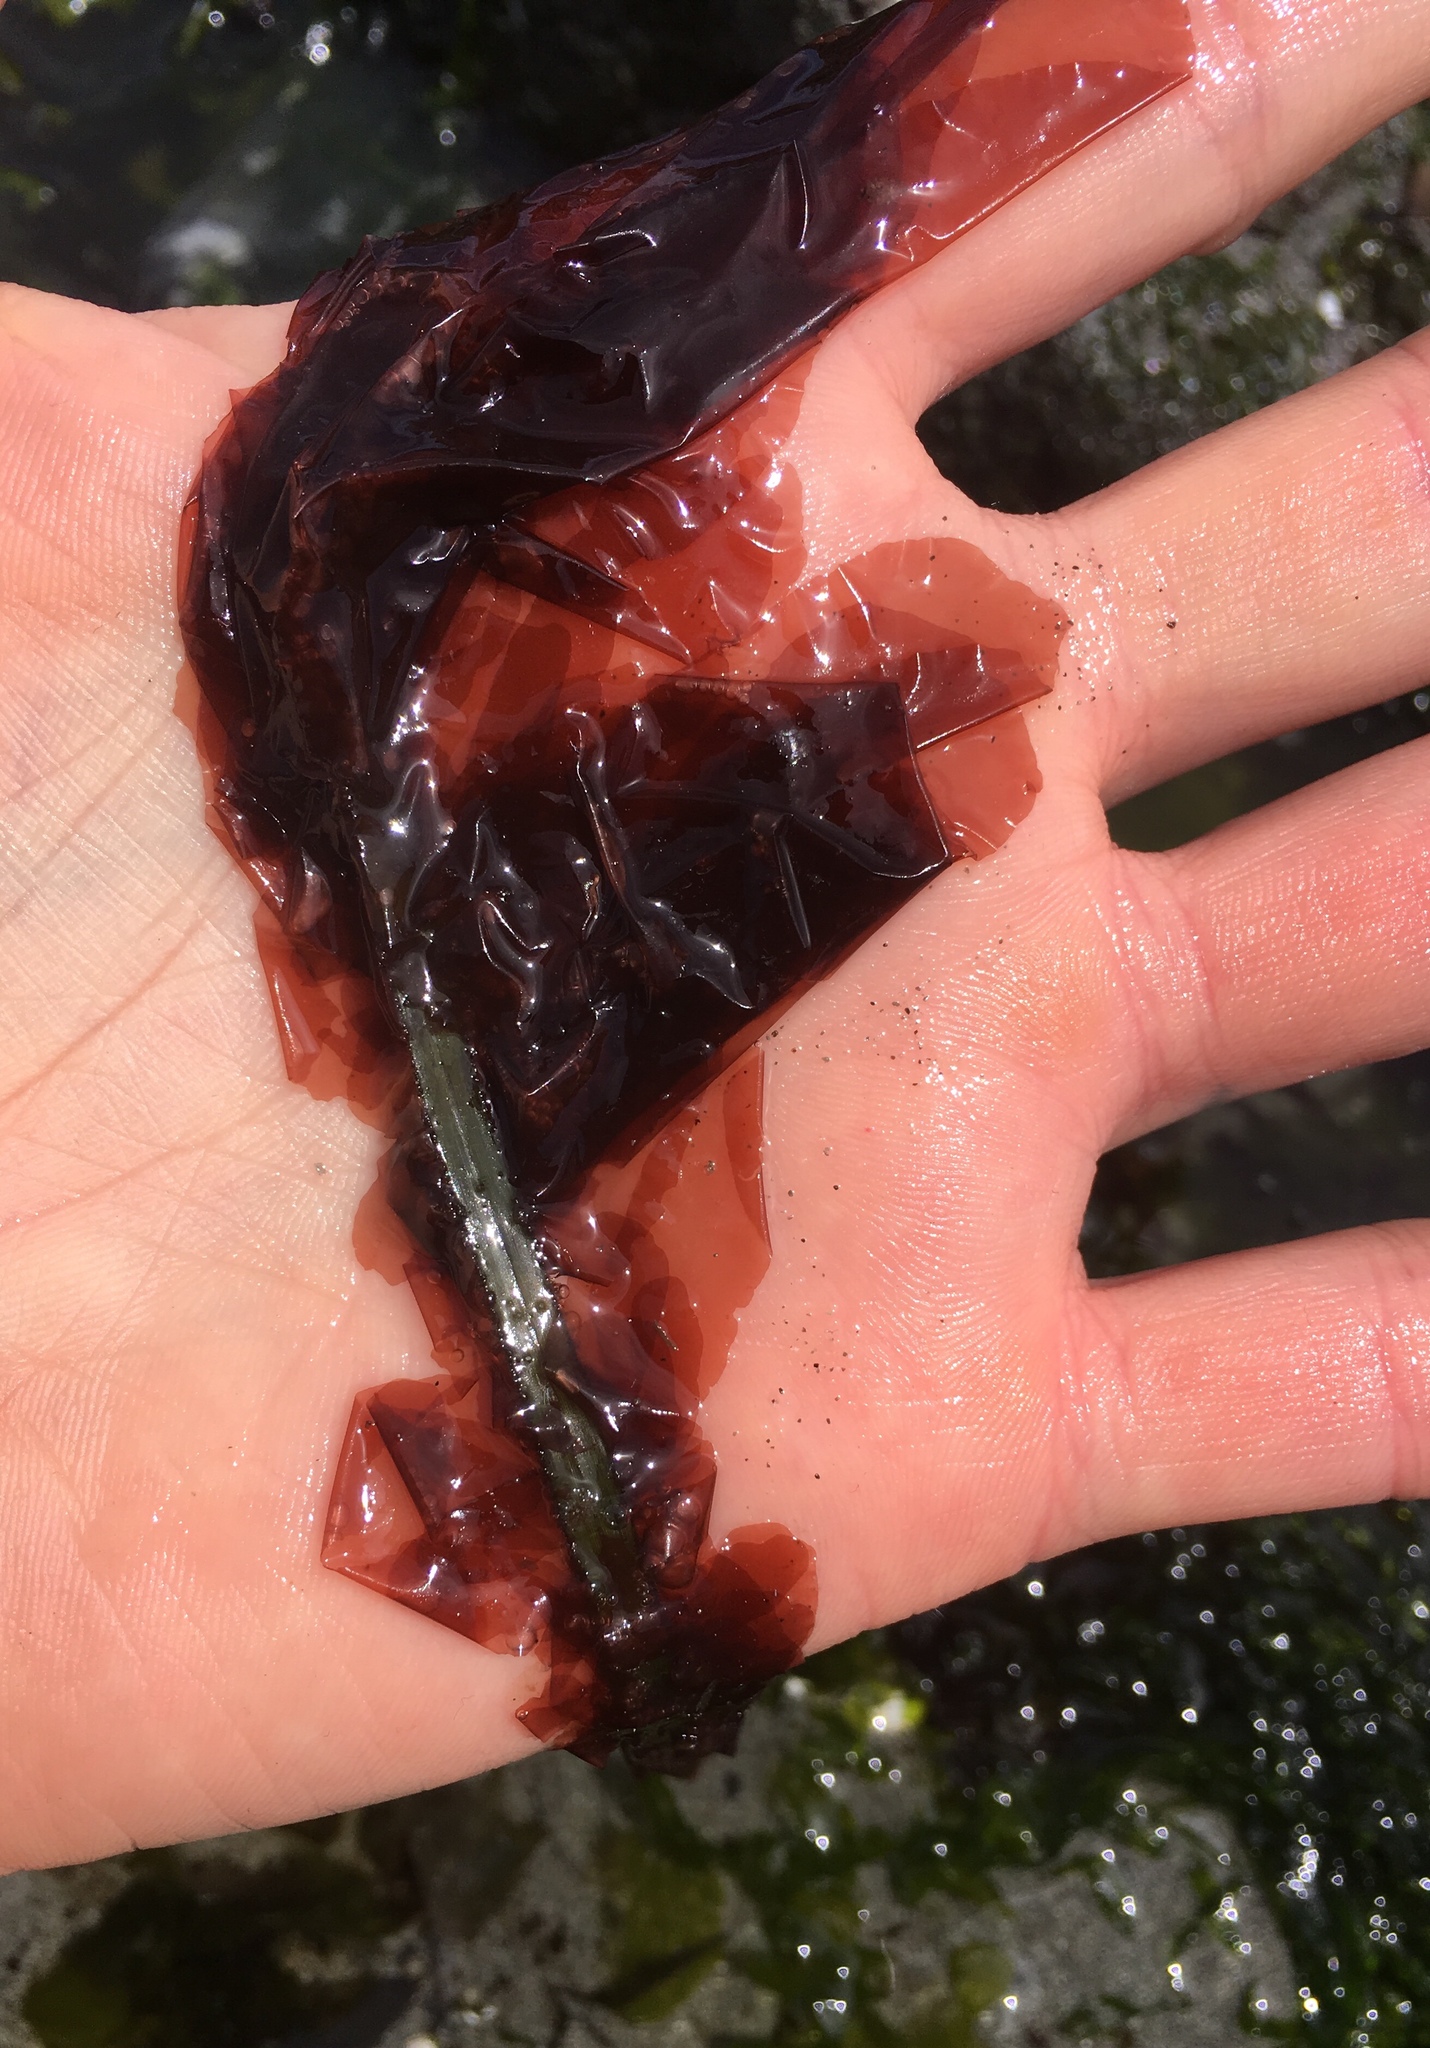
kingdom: Plantae
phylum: Rhodophyta
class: Compsopogonophyceae
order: Erythropeltidales
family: Erythrotrichiaceae
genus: Smithora
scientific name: Smithora naiadum
